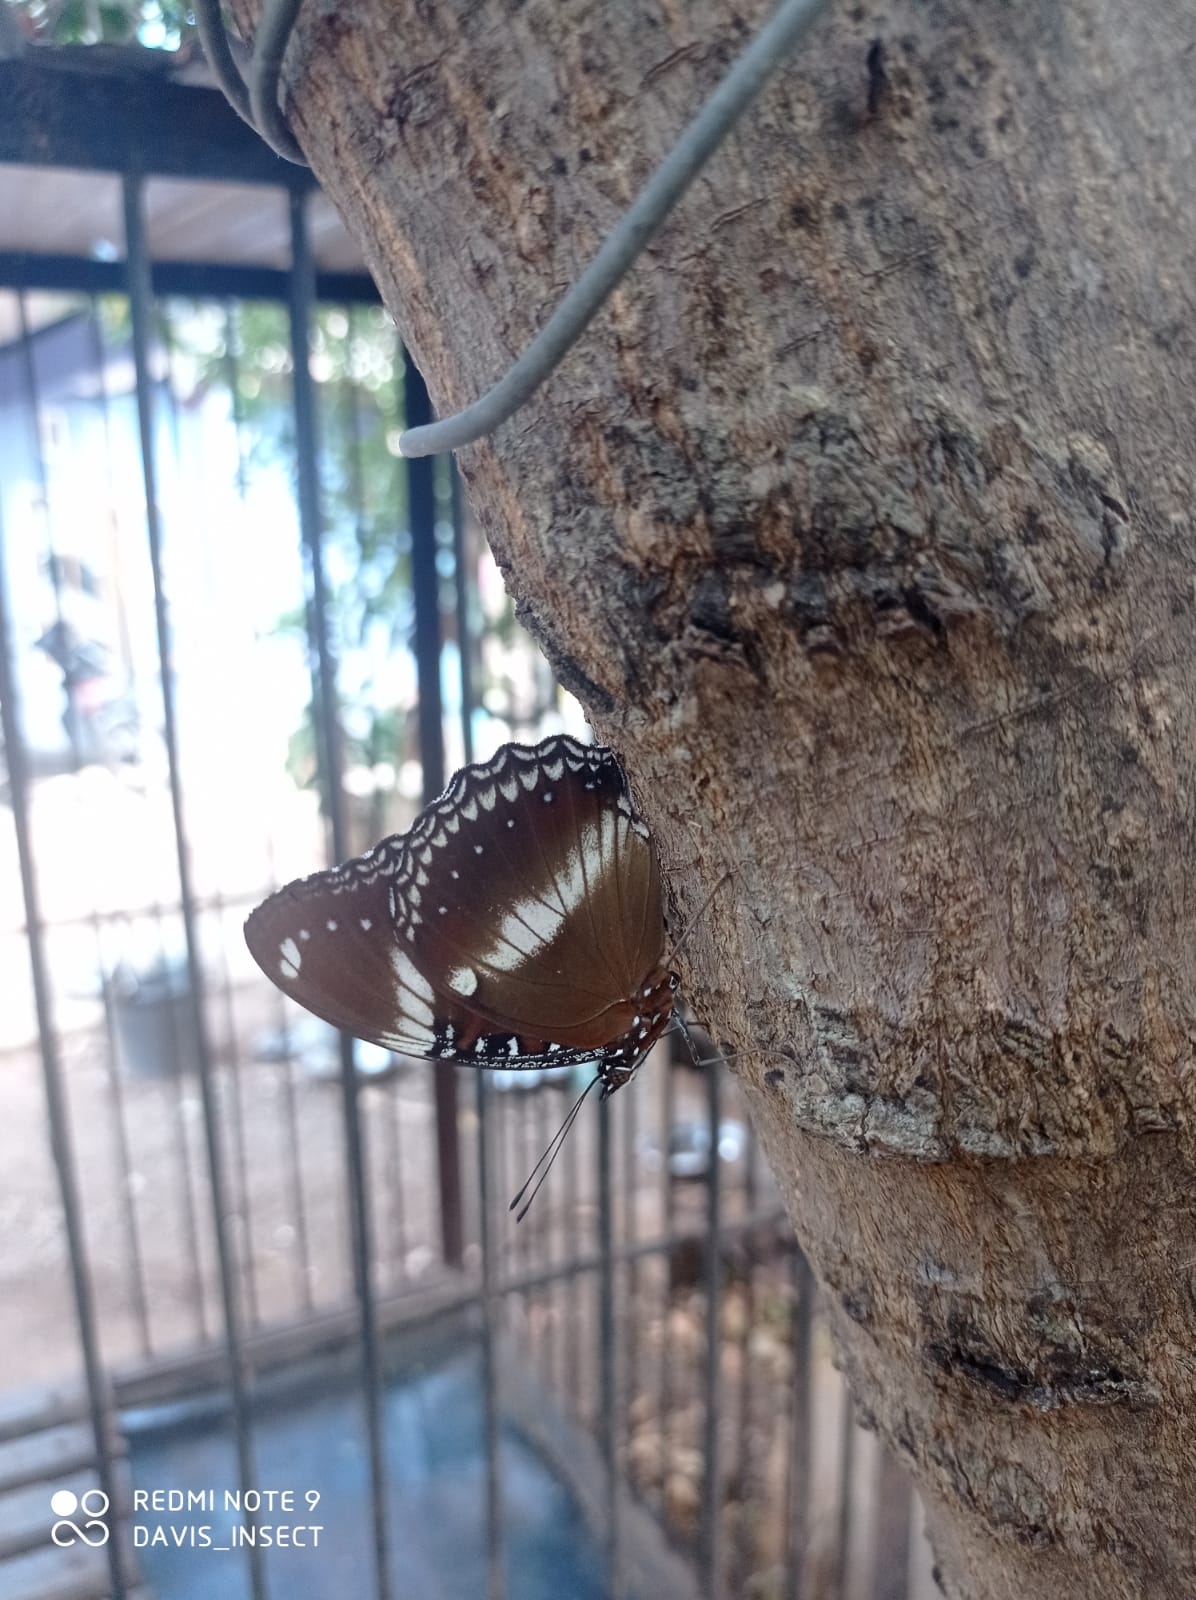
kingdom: Animalia
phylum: Arthropoda
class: Insecta
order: Lepidoptera
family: Nymphalidae
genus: Hypolimnas
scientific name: Hypolimnas bolina
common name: Great eggfly
